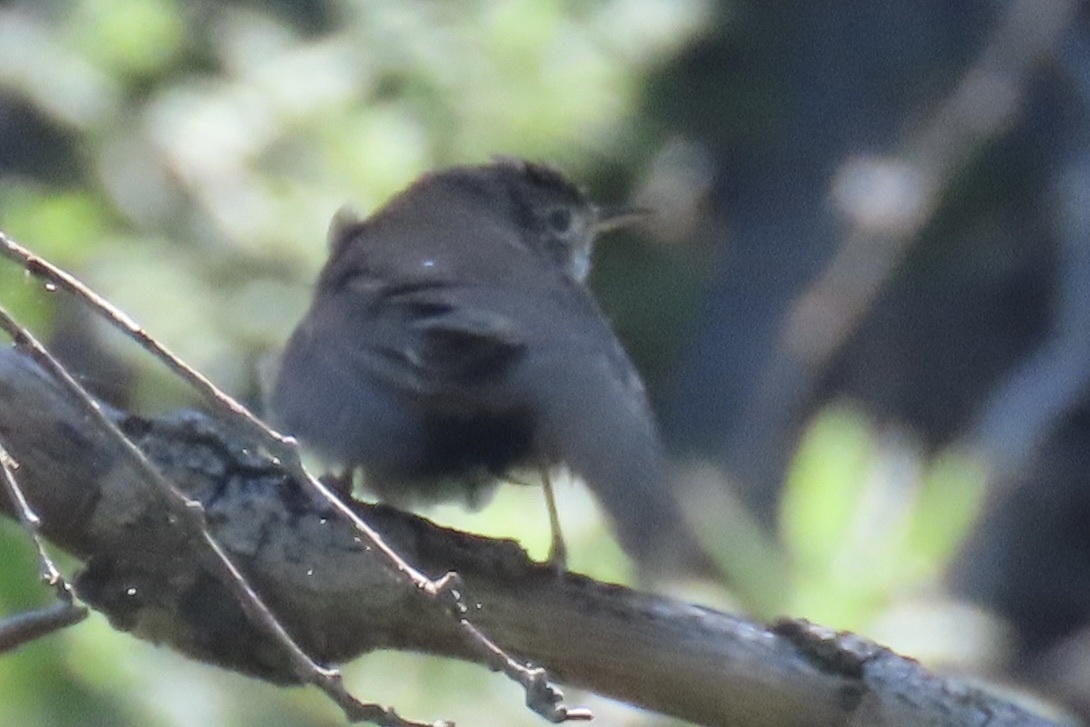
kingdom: Animalia
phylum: Chordata
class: Aves
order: Passeriformes
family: Troglodytidae
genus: Troglodytes
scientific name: Troglodytes aedon
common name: House wren
